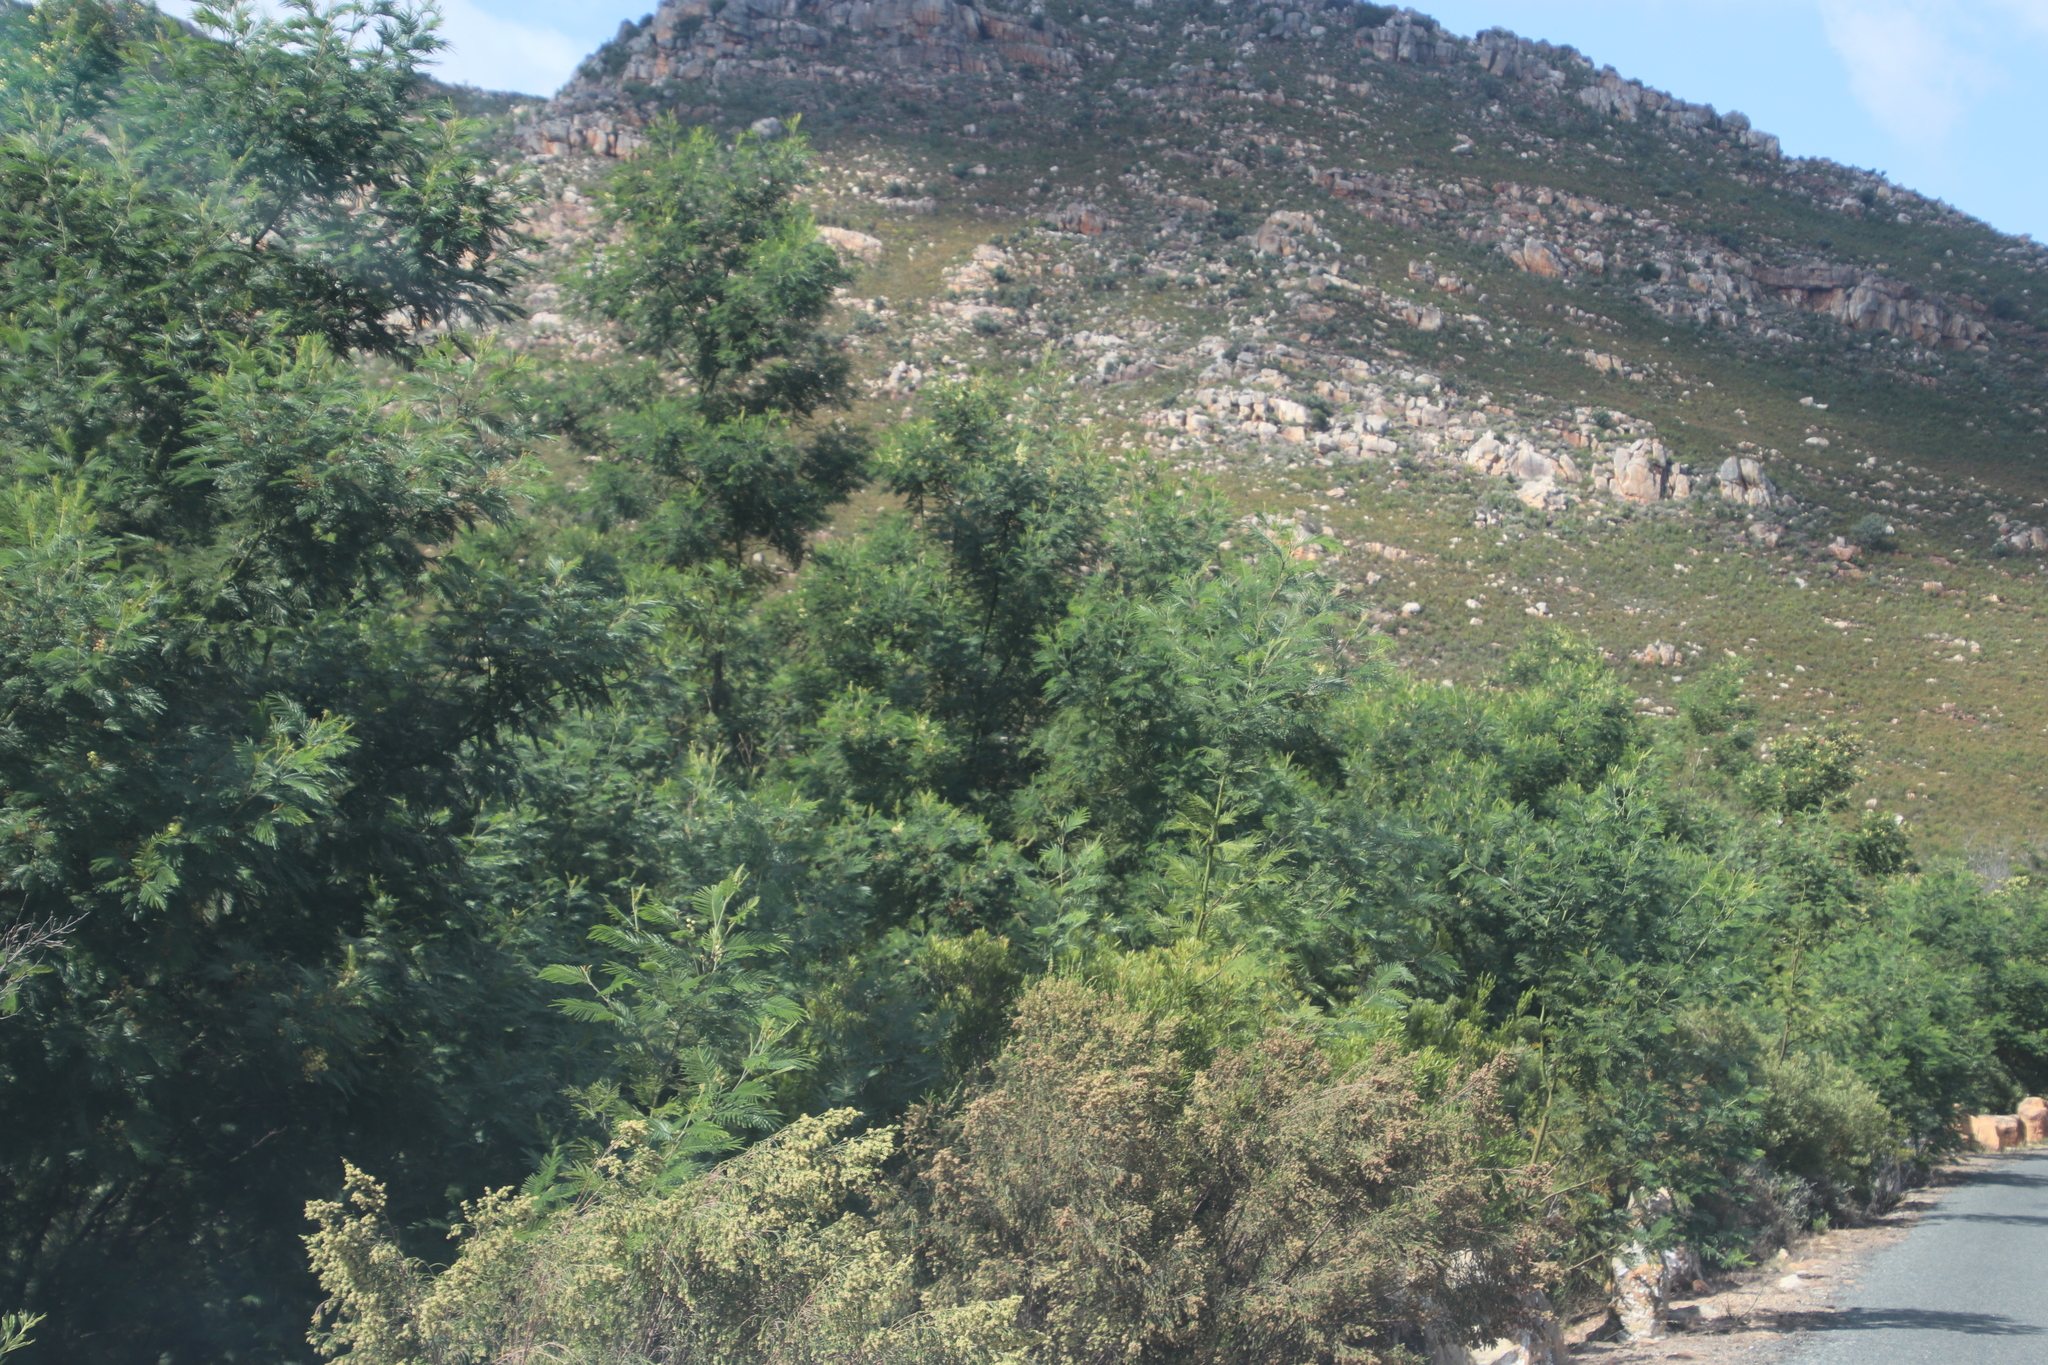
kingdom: Plantae
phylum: Tracheophyta
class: Magnoliopsida
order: Fabales
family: Fabaceae
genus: Acacia
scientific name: Acacia mearnsii
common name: Black wattle
